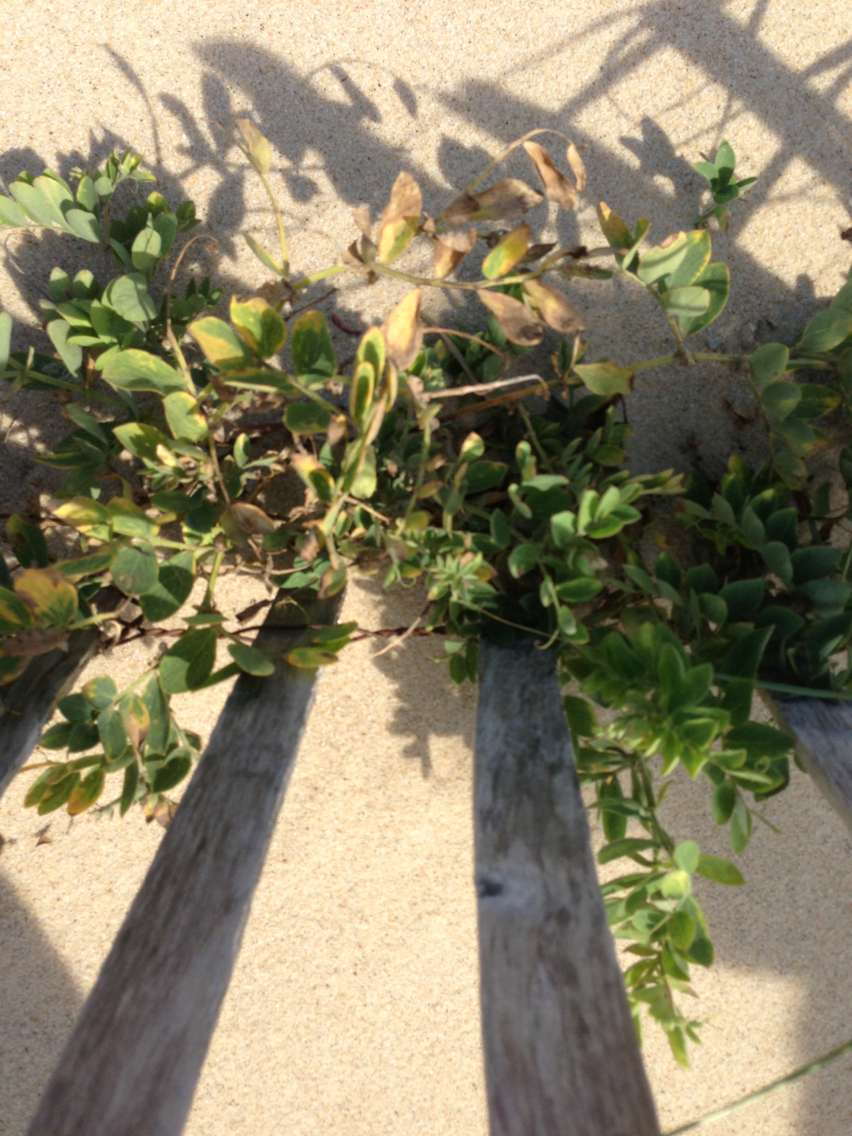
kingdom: Plantae
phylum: Tracheophyta
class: Magnoliopsida
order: Fabales
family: Fabaceae
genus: Lathyrus
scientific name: Lathyrus japonicus
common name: Sea pea
